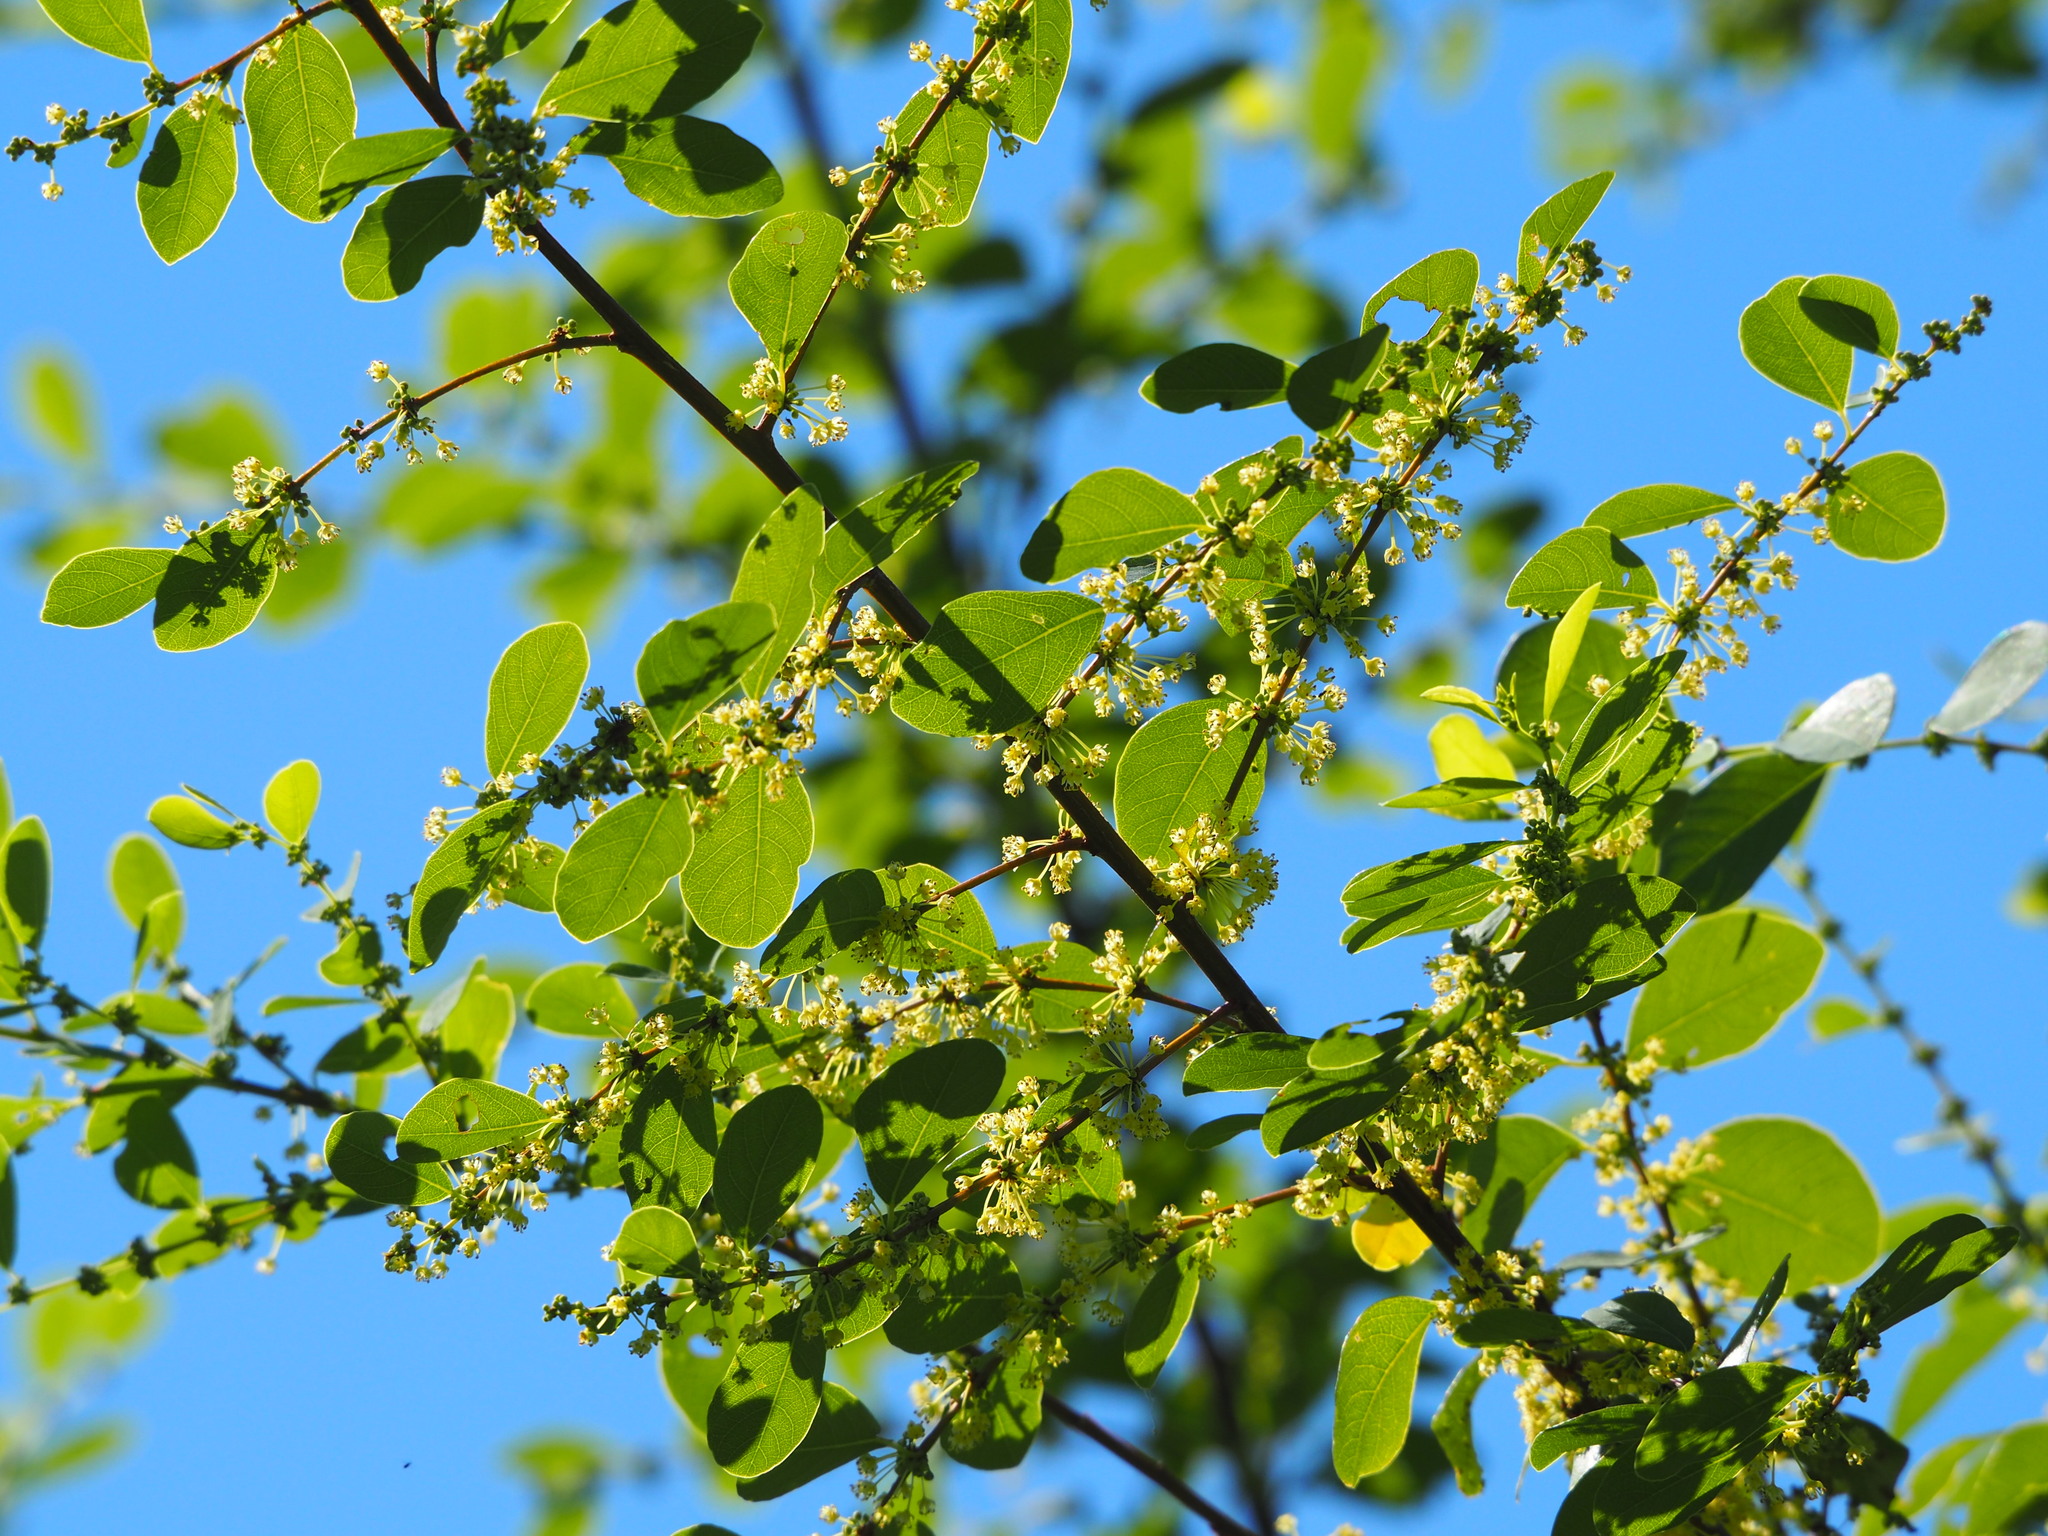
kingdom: Plantae
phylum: Tracheophyta
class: Magnoliopsida
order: Malpighiales
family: Phyllanthaceae
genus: Flueggea
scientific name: Flueggea virosa
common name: Common bushweed
